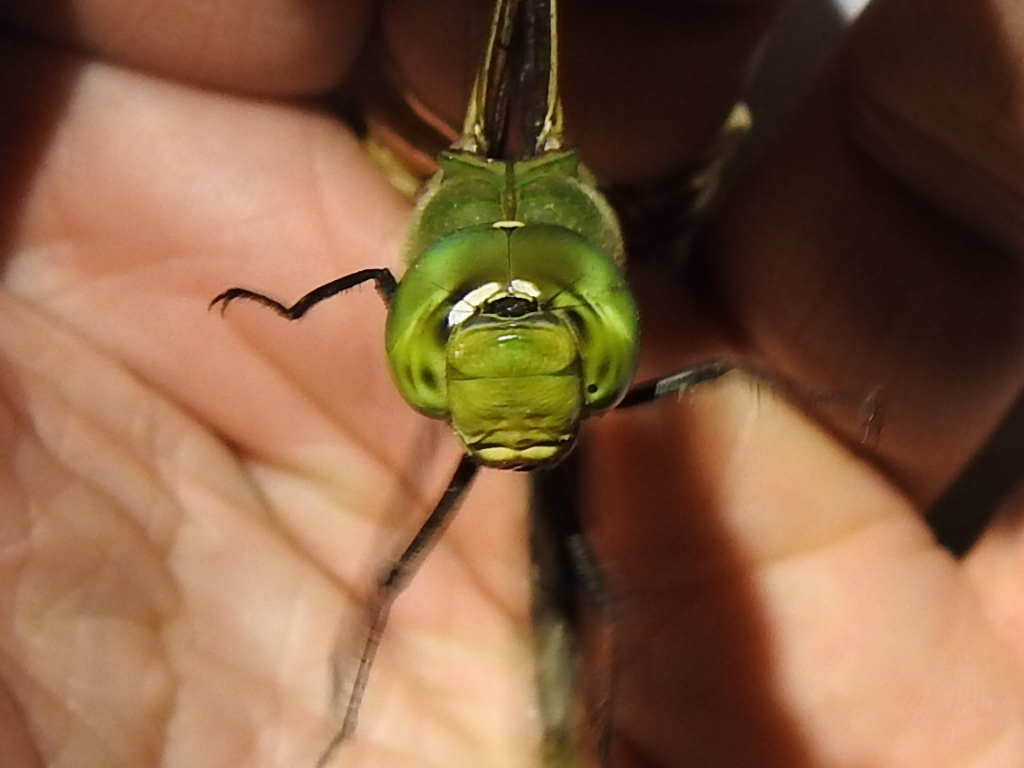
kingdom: Animalia
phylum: Arthropoda
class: Insecta
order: Odonata
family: Aeshnidae
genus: Anax
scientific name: Anax junius
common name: Common green darner
